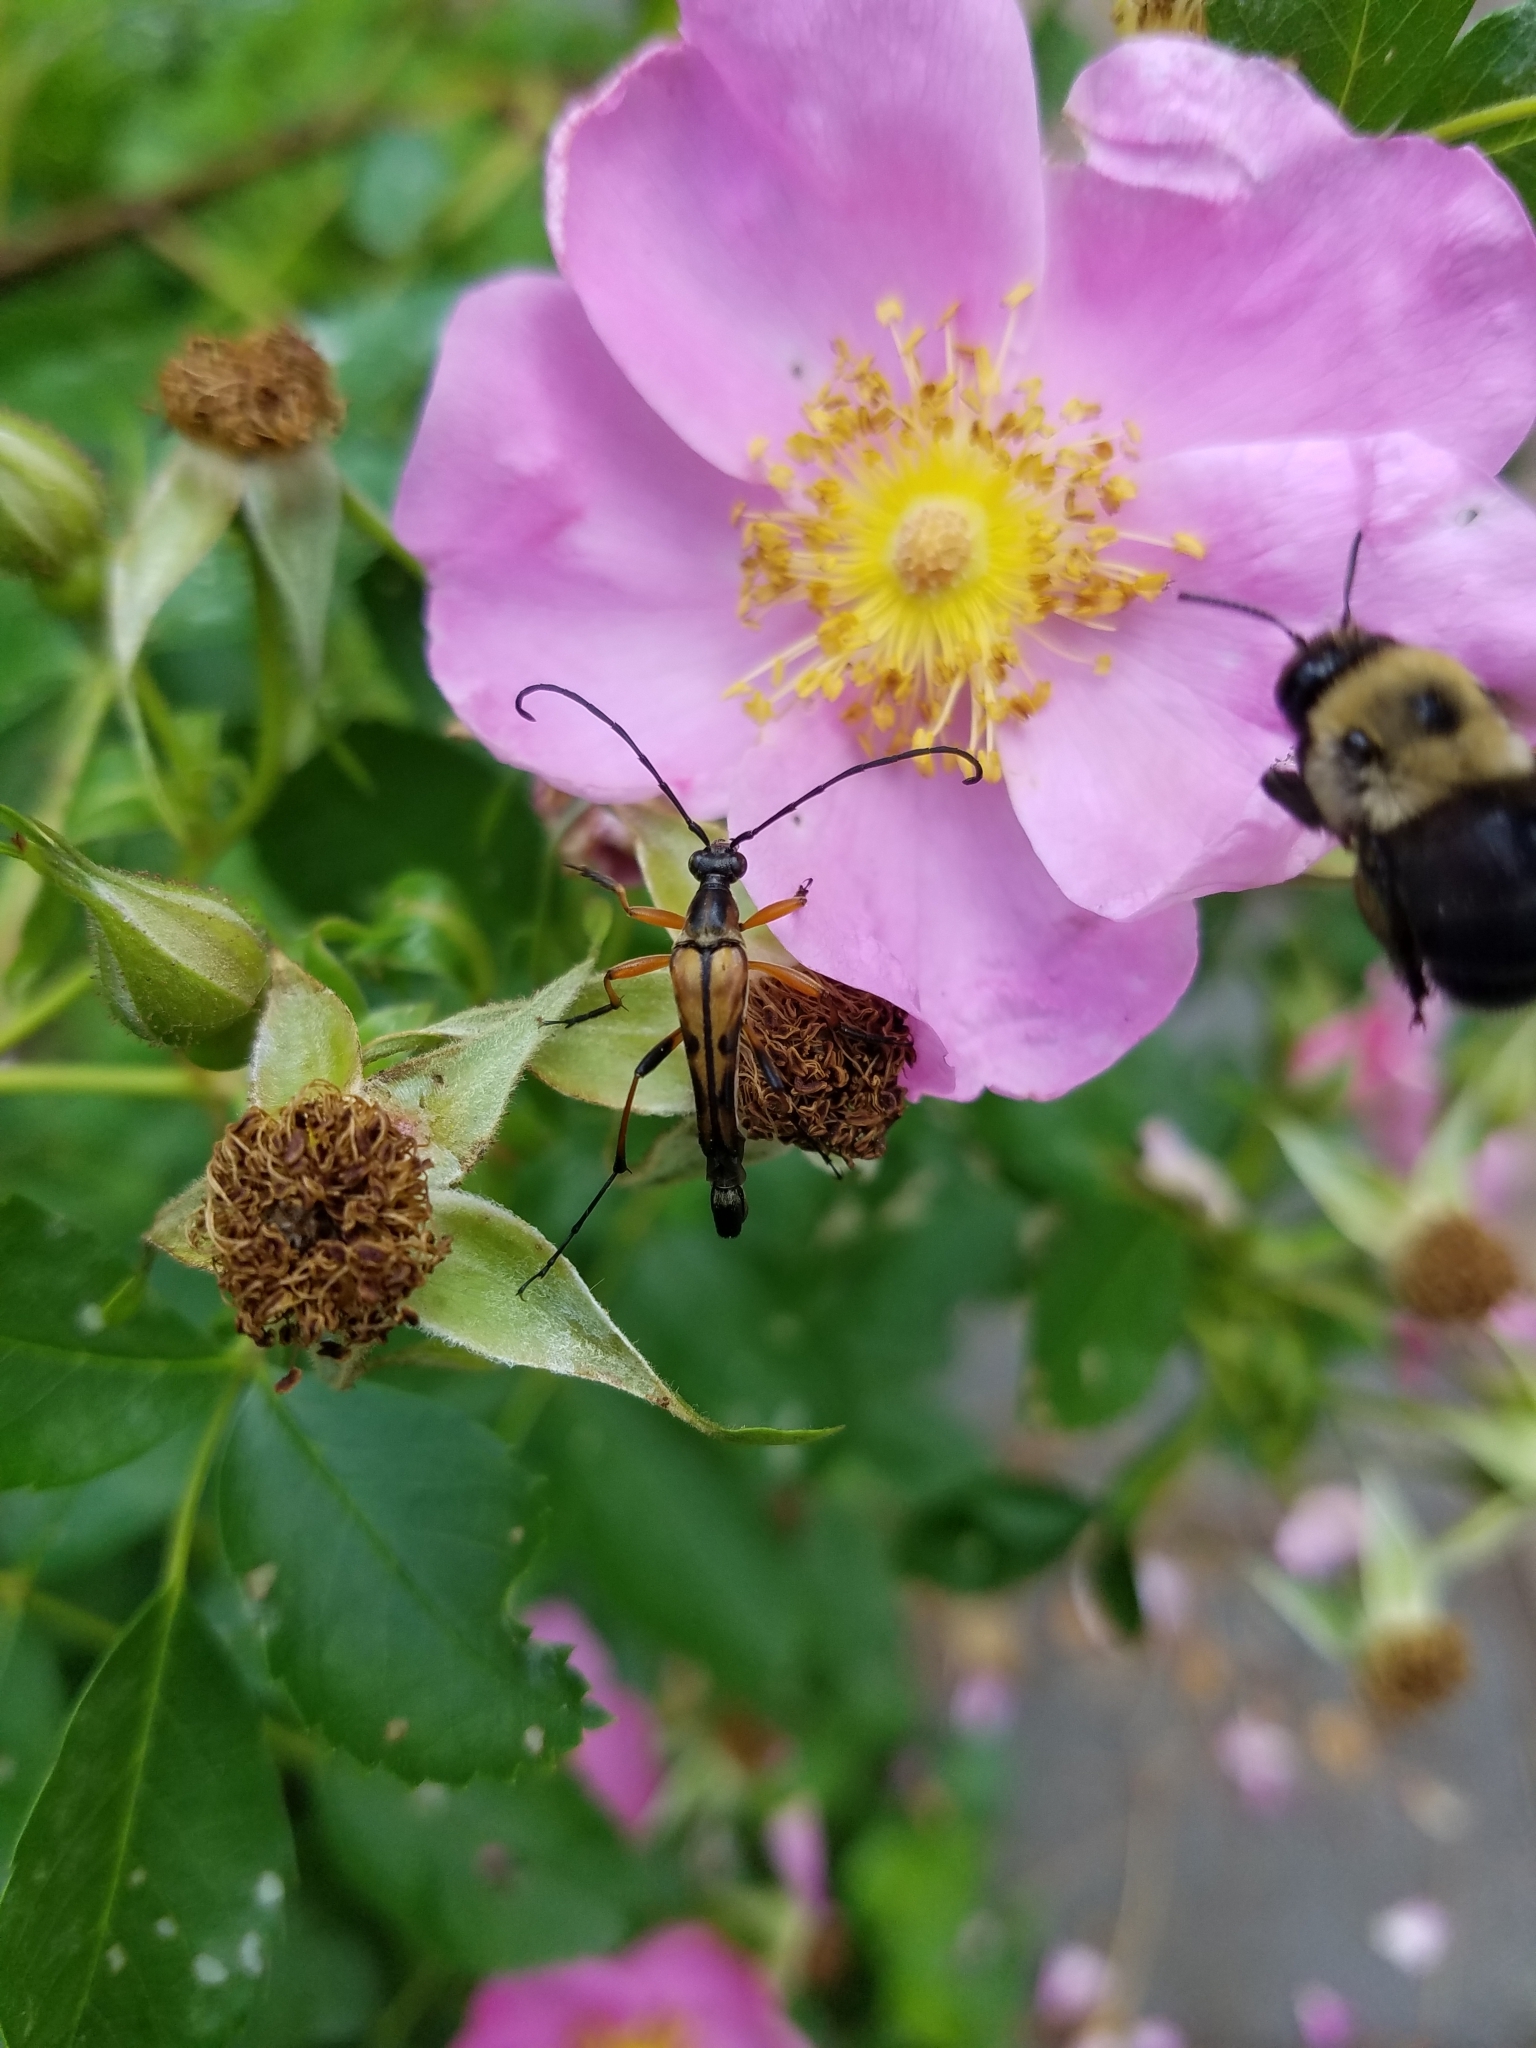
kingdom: Animalia
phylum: Arthropoda
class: Insecta
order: Coleoptera
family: Cerambycidae
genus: Strangalia
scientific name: Strangalia famelica
